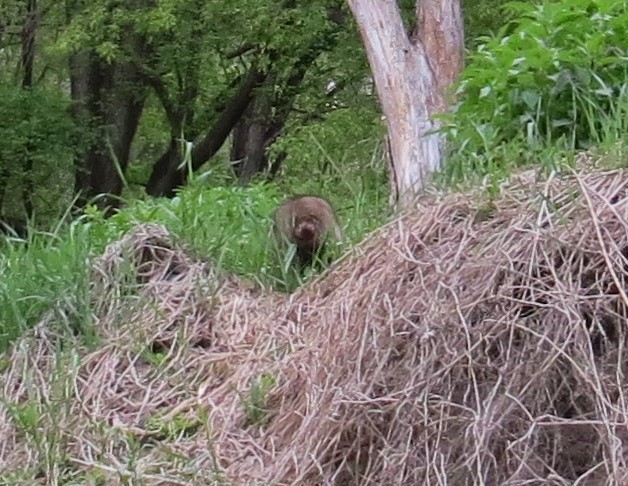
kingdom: Animalia
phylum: Chordata
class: Mammalia
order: Carnivora
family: Procyonidae
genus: Procyon
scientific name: Procyon lotor
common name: Raccoon
